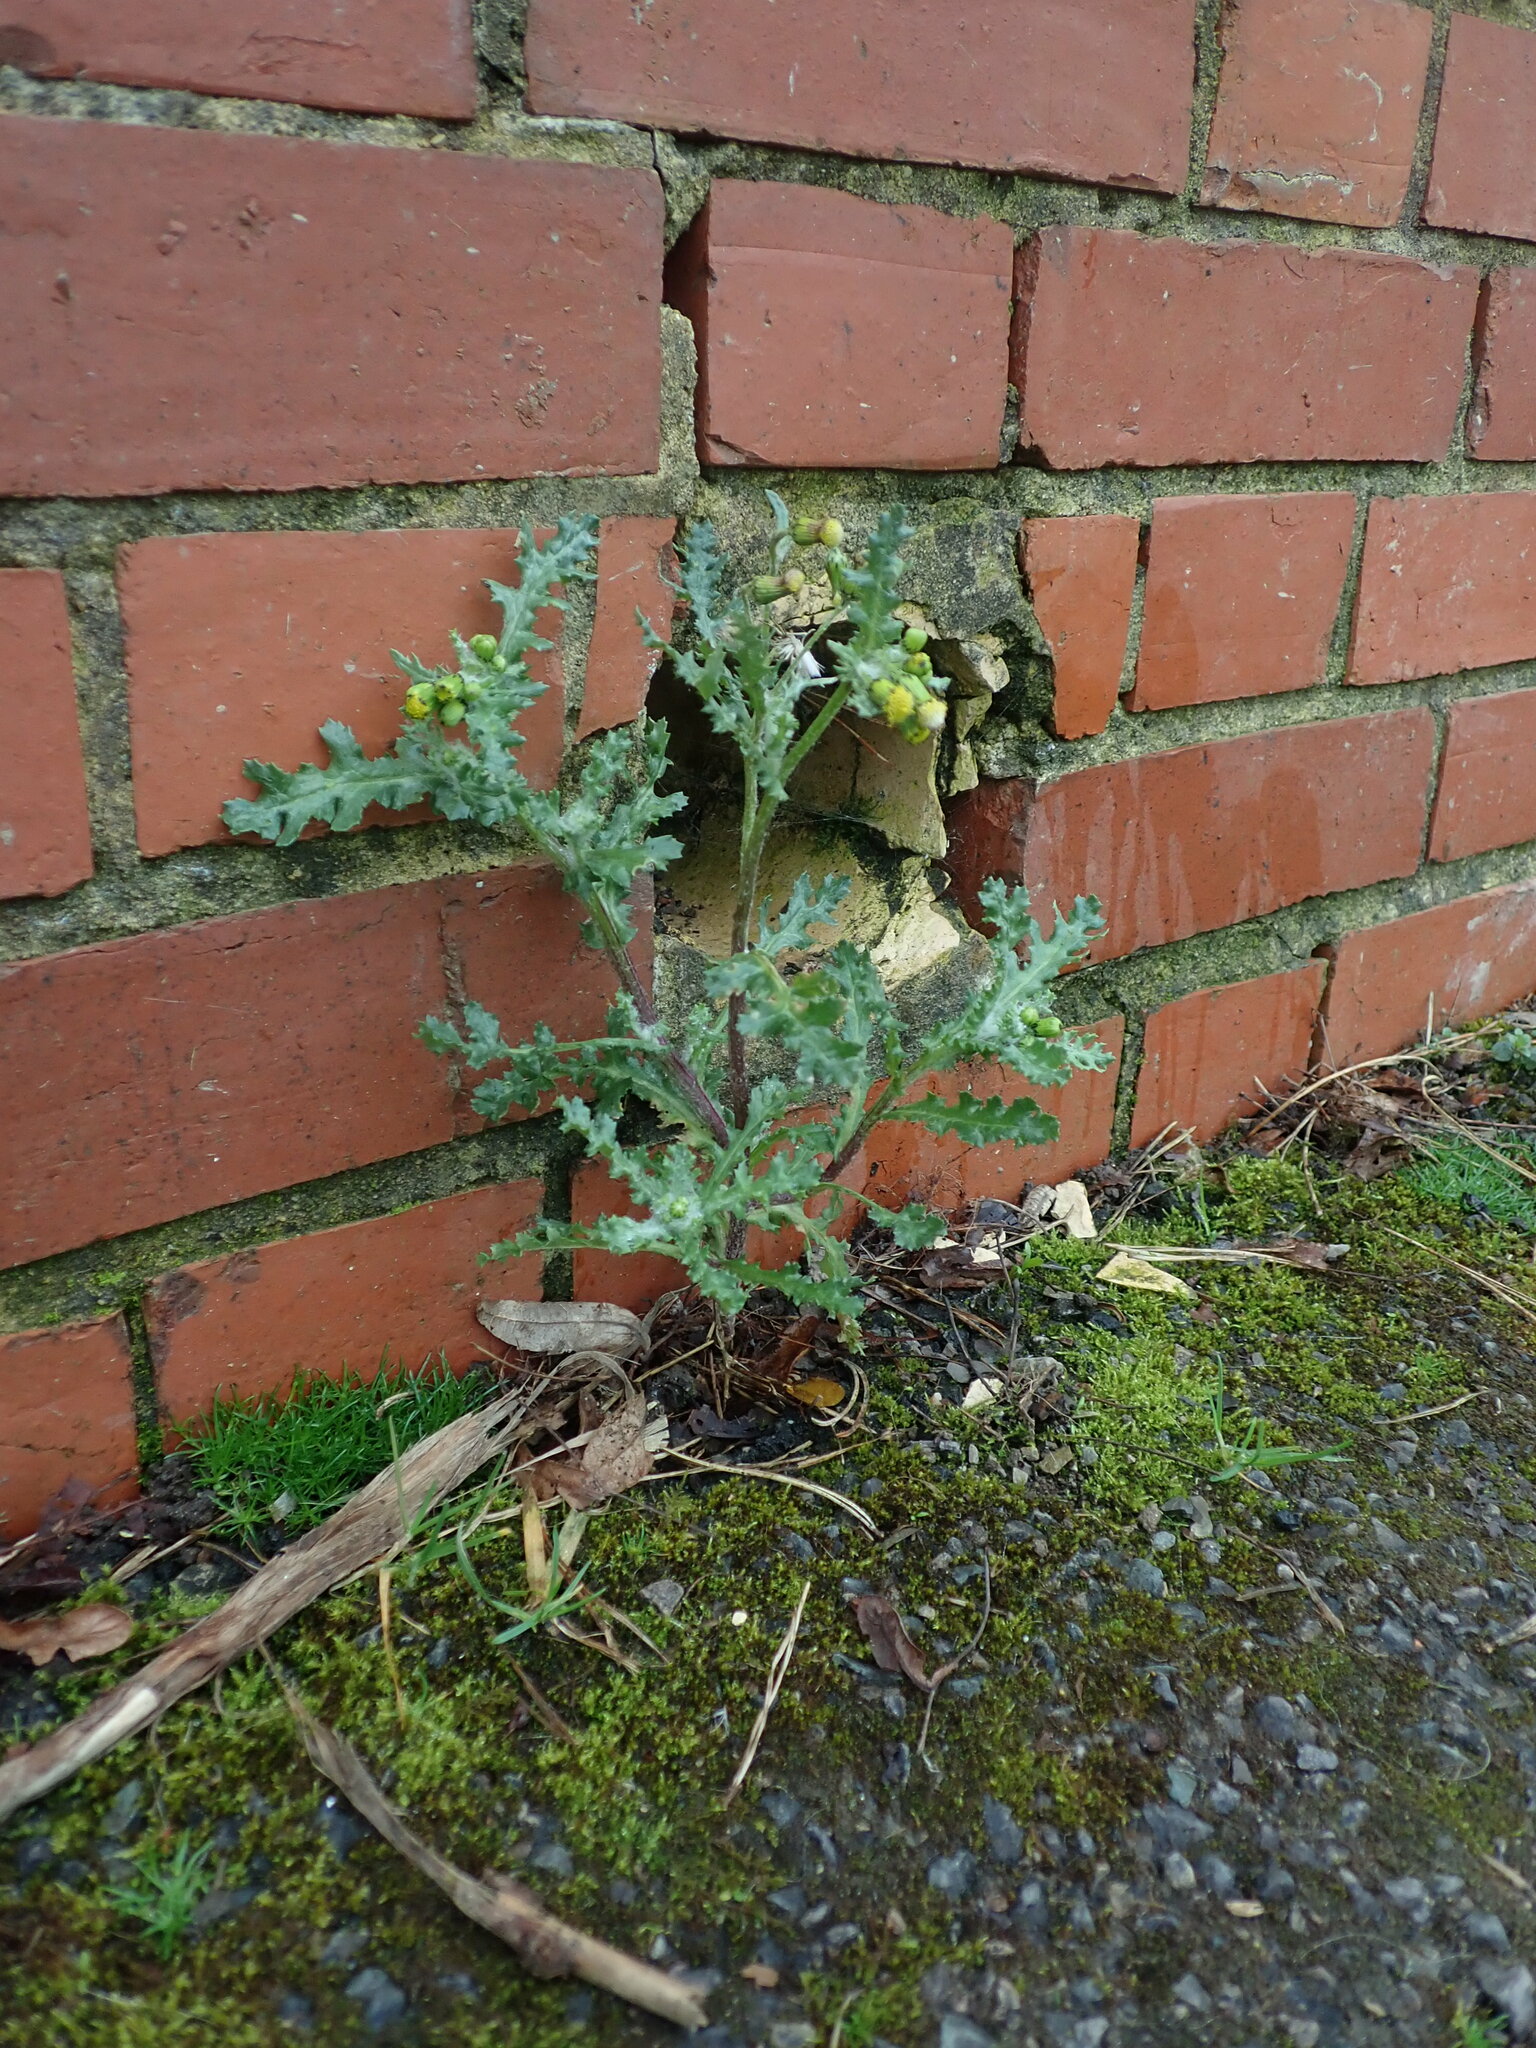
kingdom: Plantae
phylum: Tracheophyta
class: Magnoliopsida
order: Asterales
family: Asteraceae
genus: Senecio
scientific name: Senecio vulgaris
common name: Old-man-in-the-spring
